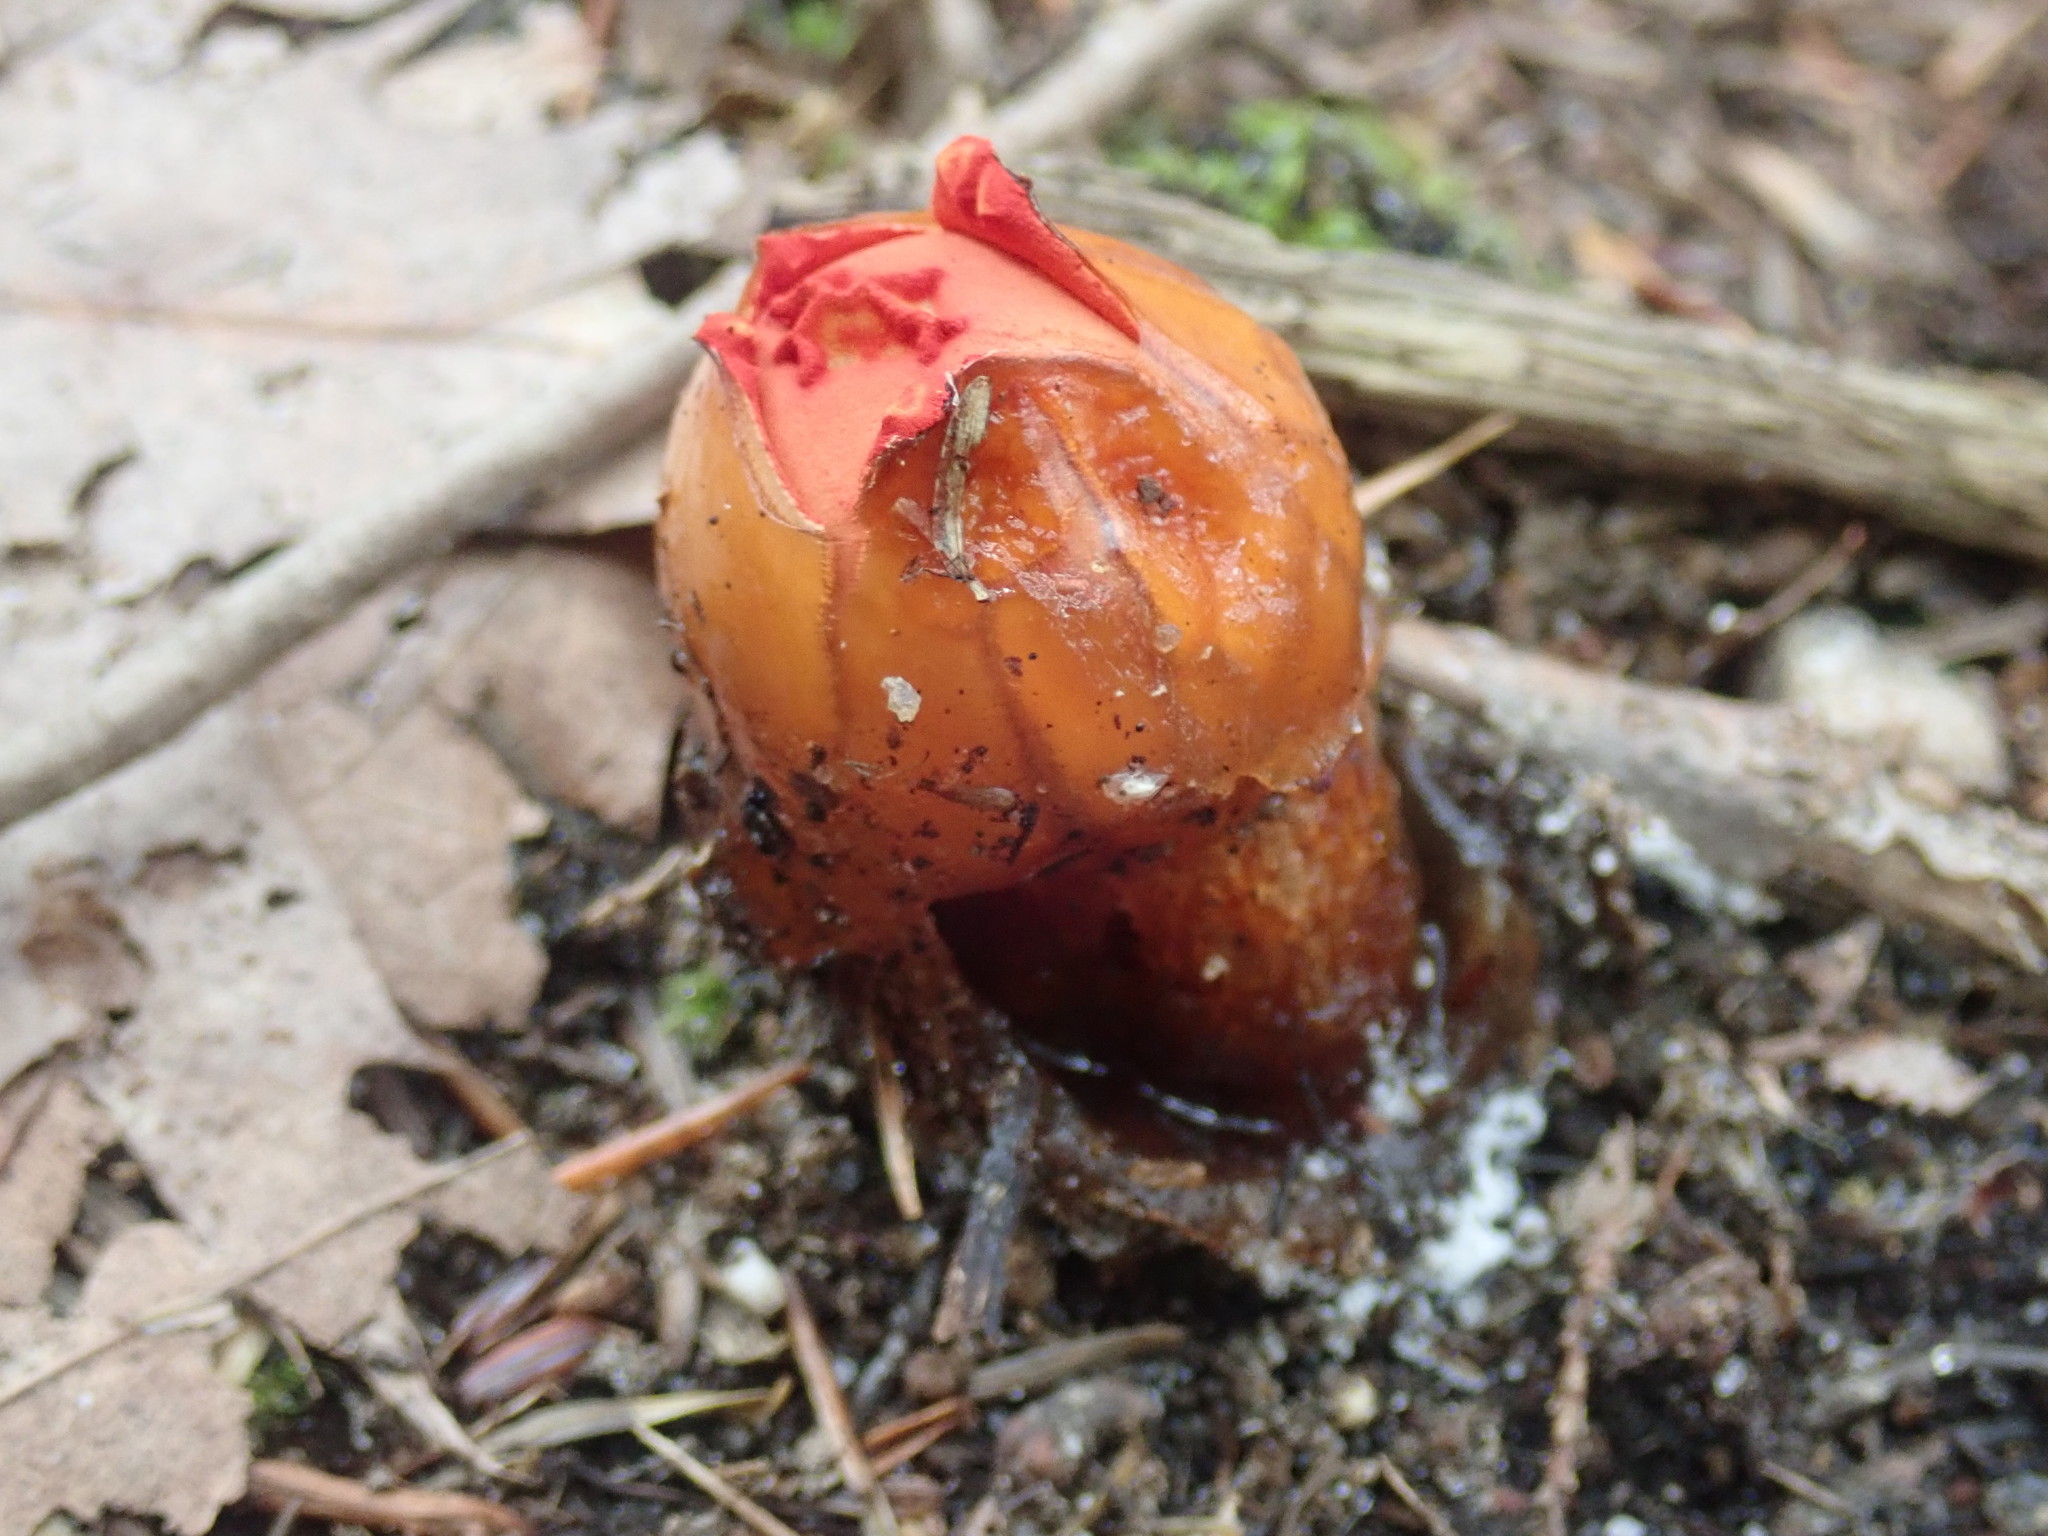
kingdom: Fungi
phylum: Basidiomycota
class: Agaricomycetes
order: Boletales
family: Calostomataceae
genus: Calostoma
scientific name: Calostoma cinnabarinum
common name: Stalked puffball-in-aspic
